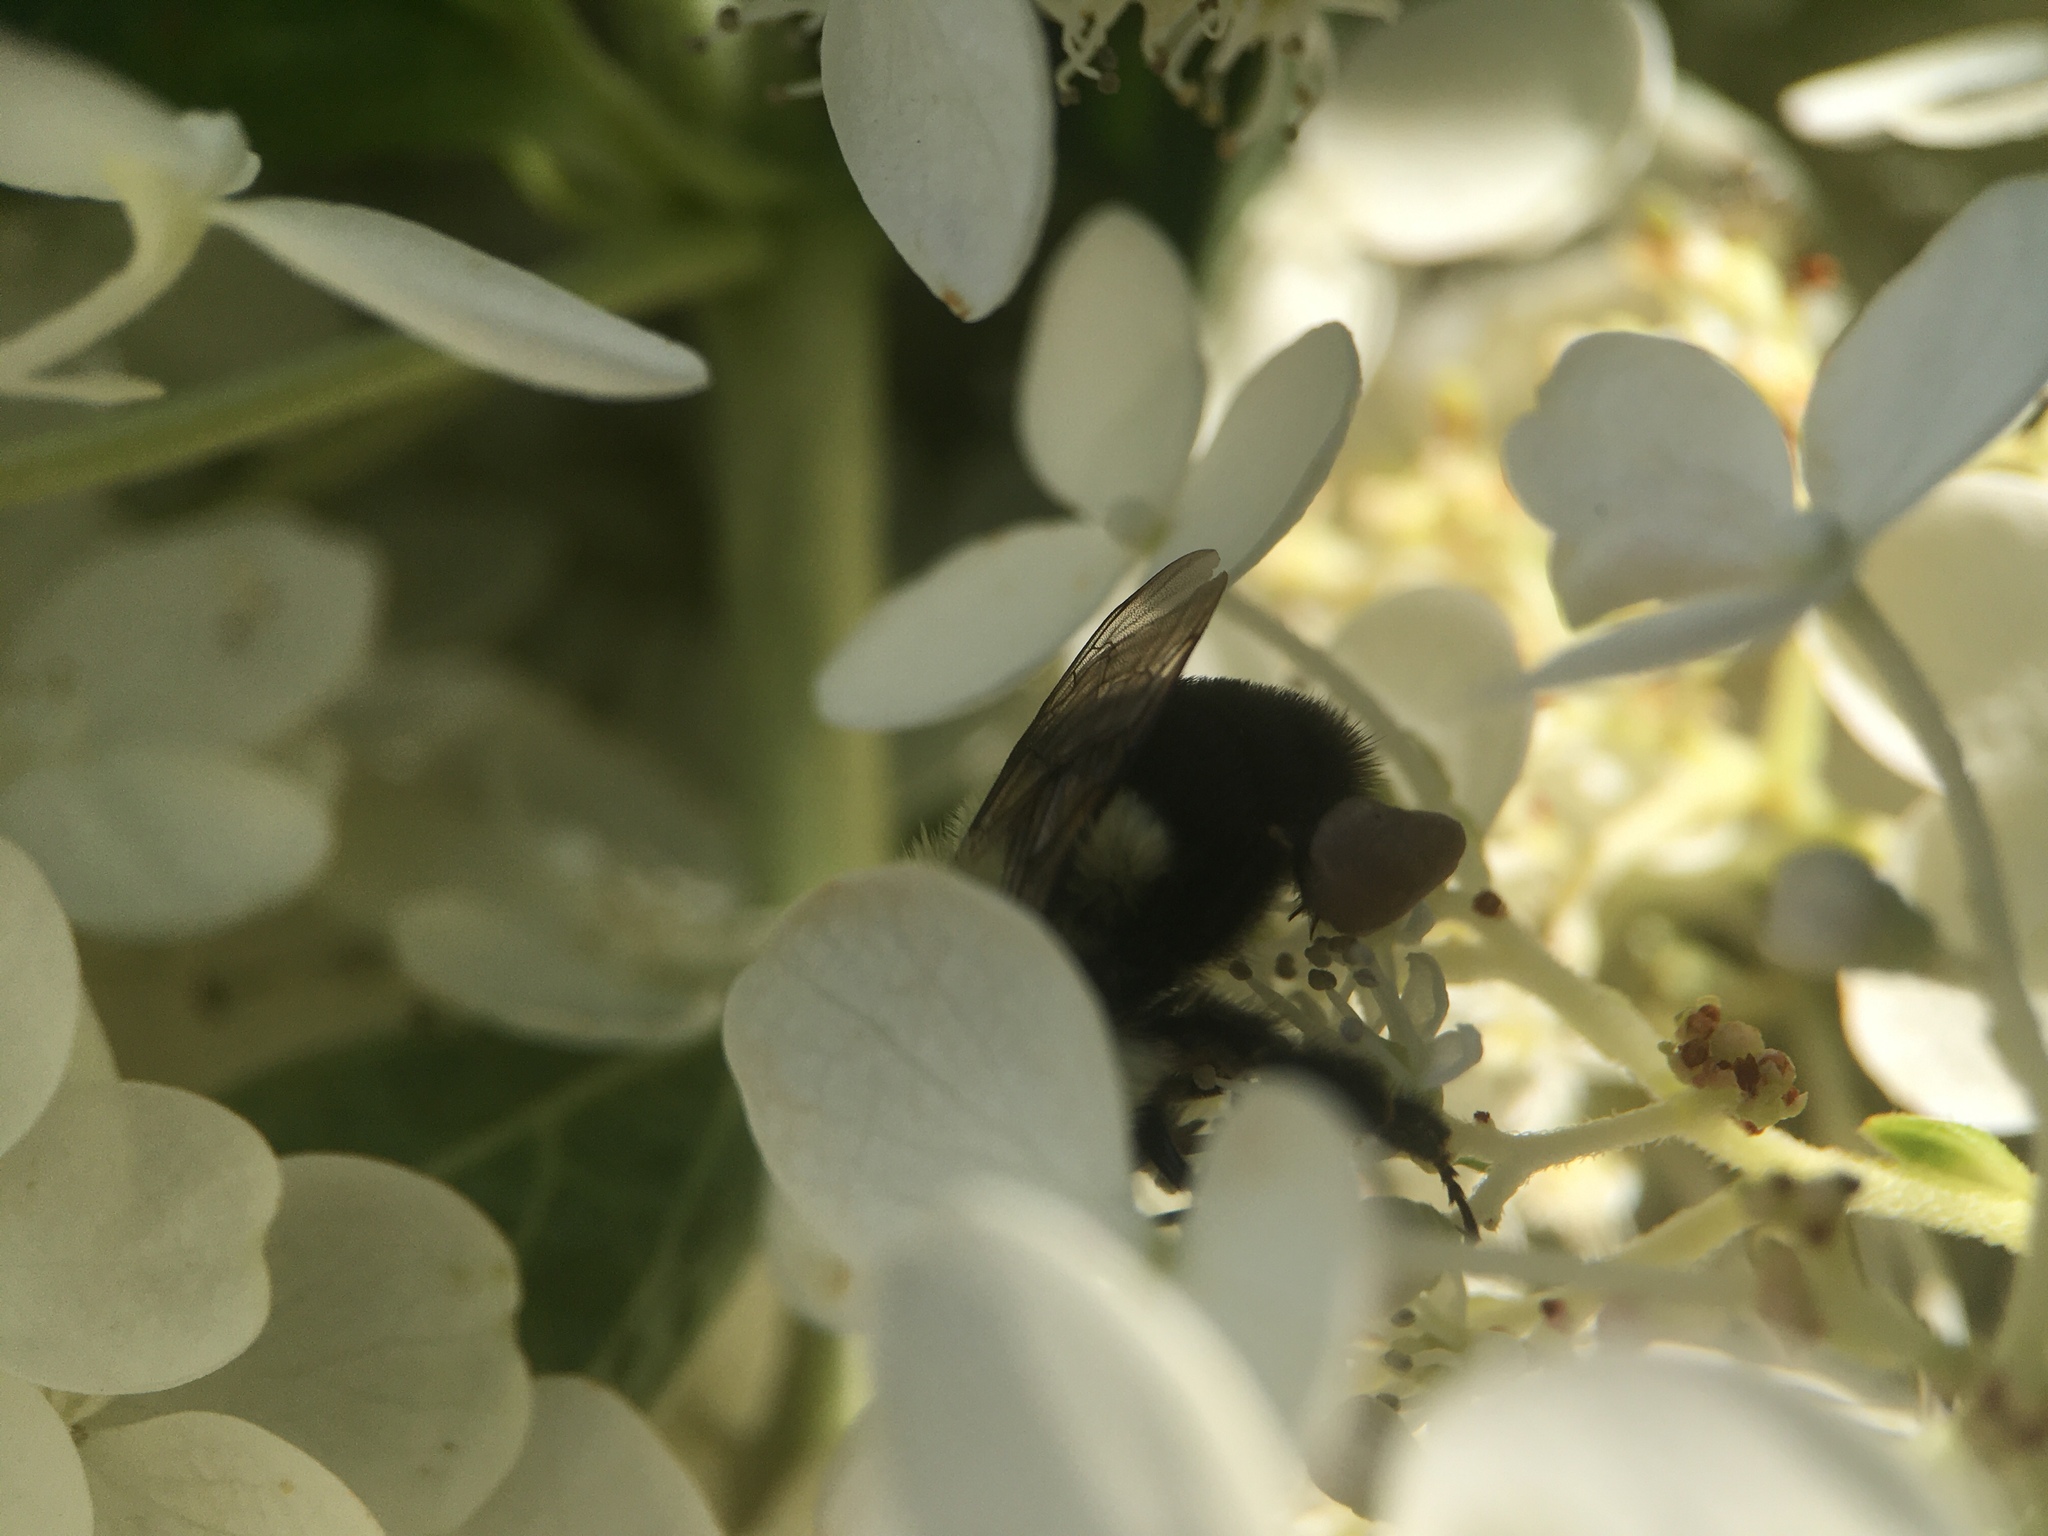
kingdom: Animalia
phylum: Arthropoda
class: Insecta
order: Hymenoptera
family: Apidae
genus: Bombus
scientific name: Bombus impatiens
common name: Common eastern bumble bee
